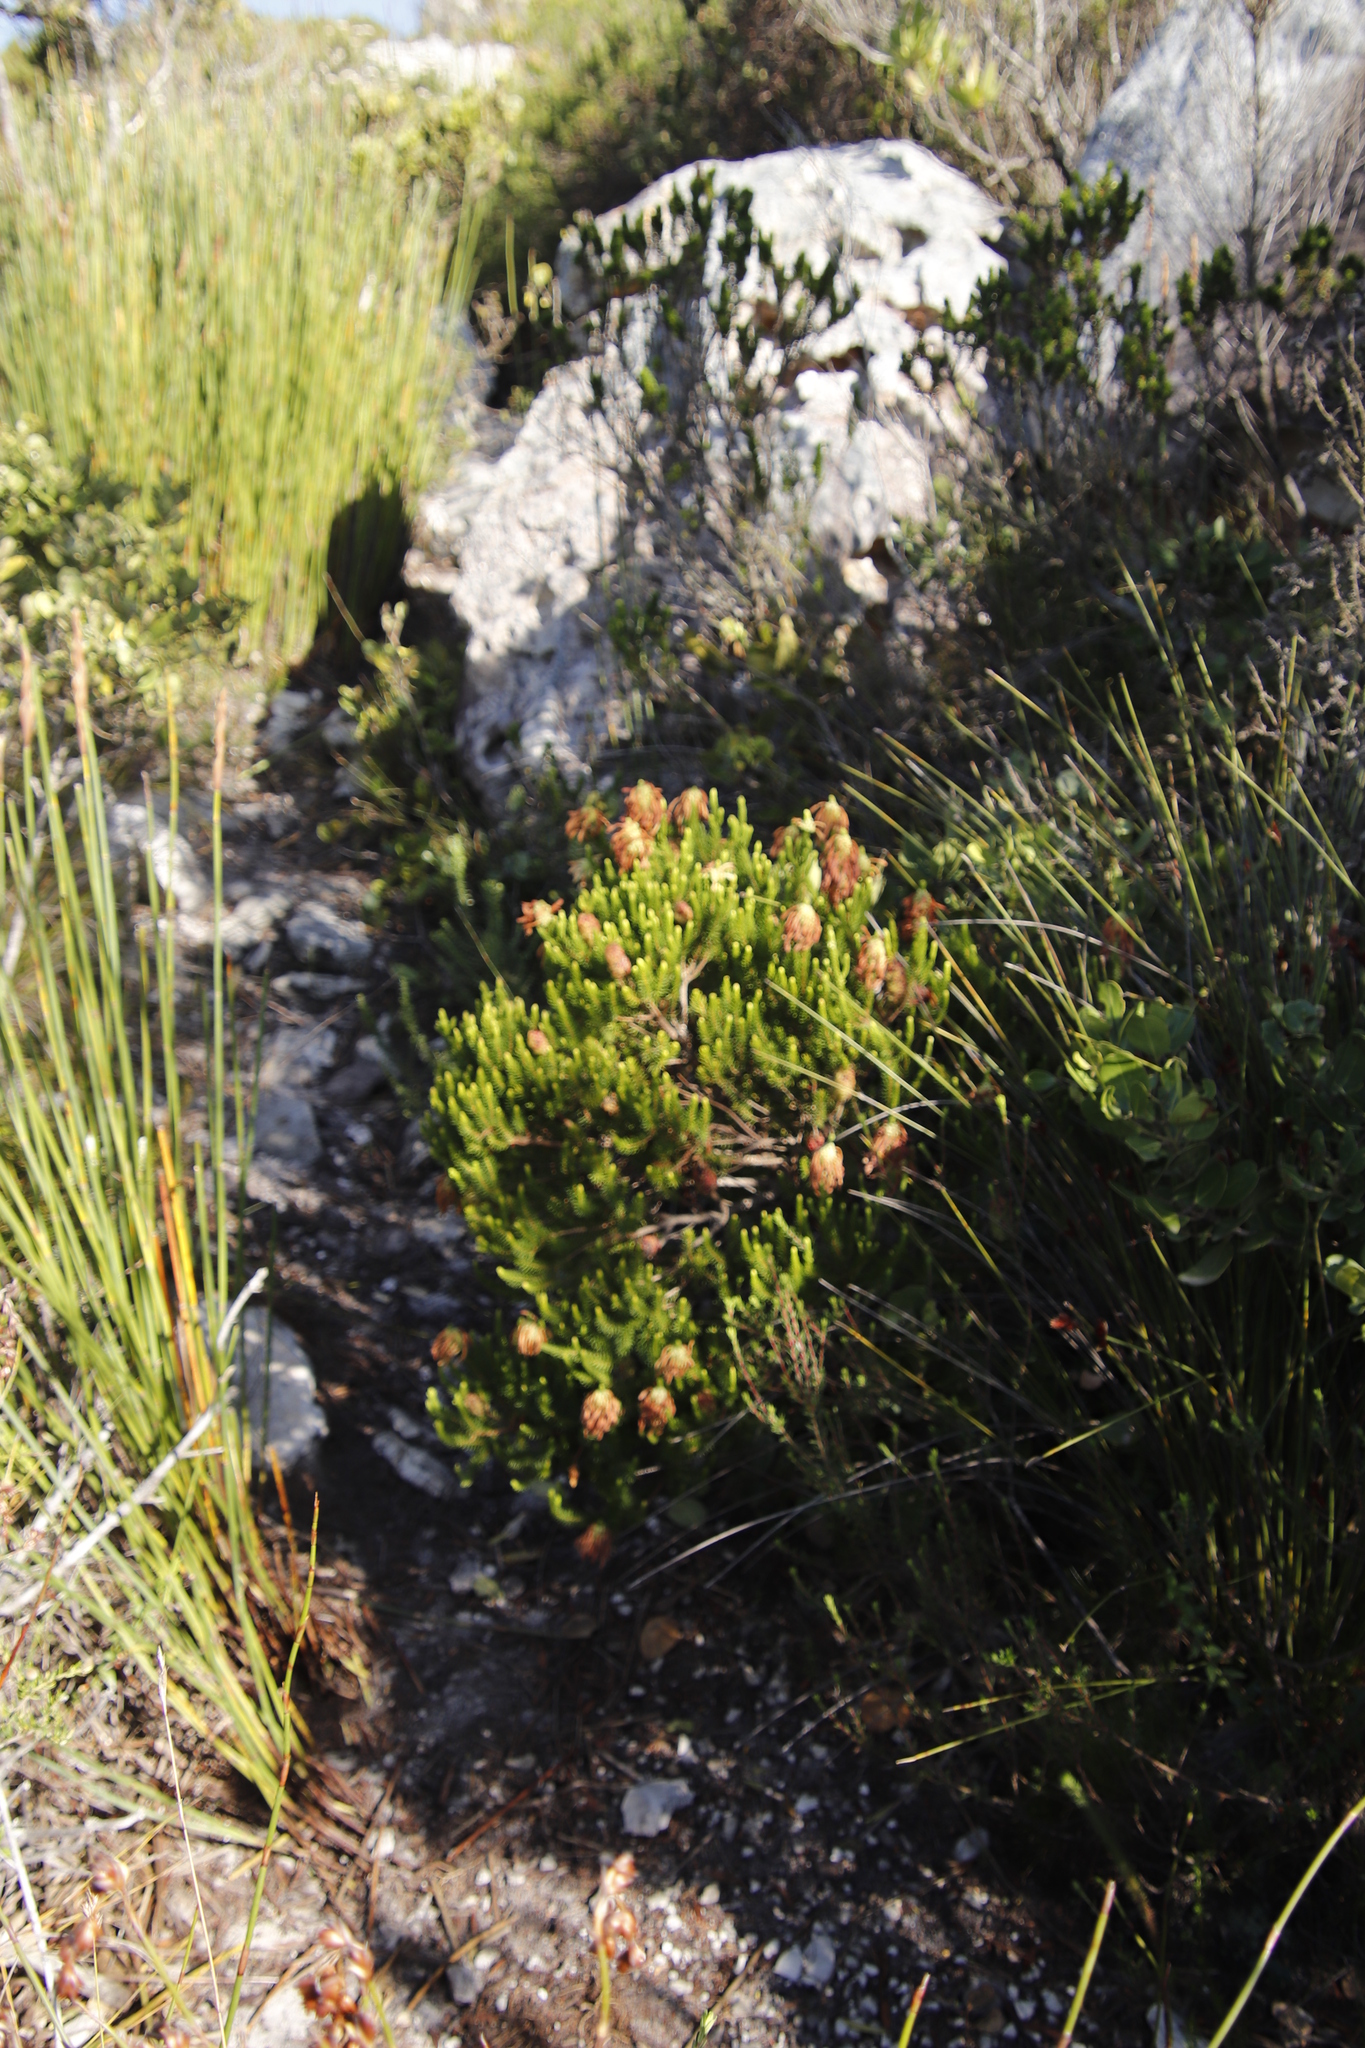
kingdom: Plantae
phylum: Tracheophyta
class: Magnoliopsida
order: Ericales
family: Ericaceae
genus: Erica
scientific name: Erica sessiliflora
